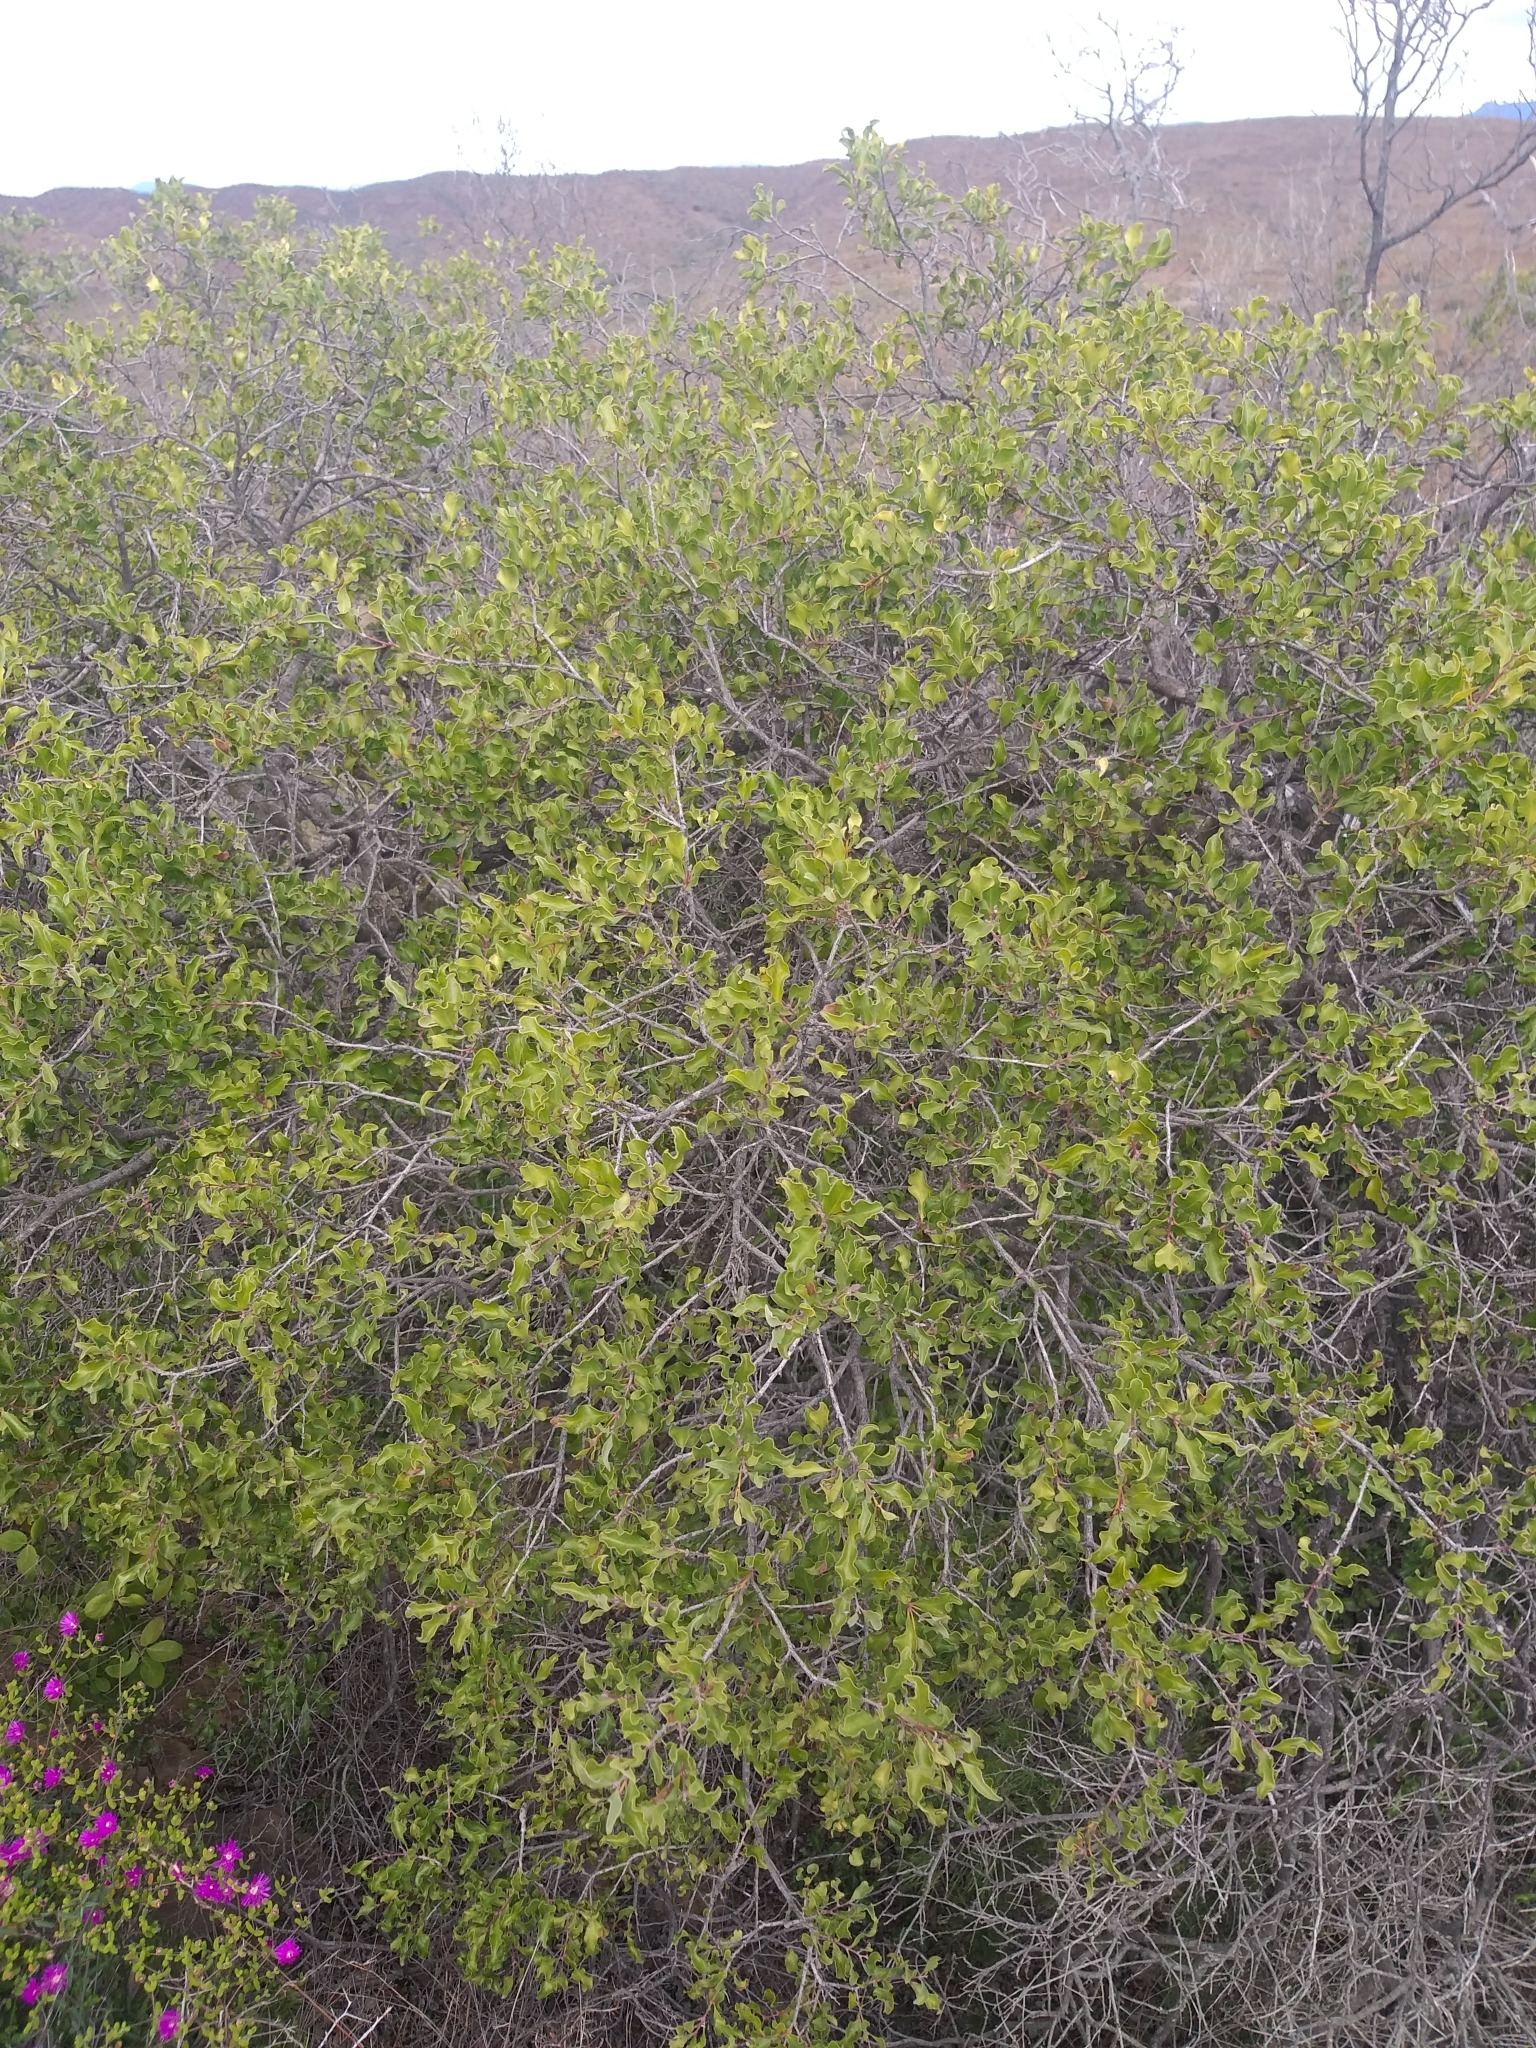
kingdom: Plantae
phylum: Tracheophyta
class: Magnoliopsida
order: Ericales
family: Ebenaceae
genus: Euclea
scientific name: Euclea undulata
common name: Small-leaved guarri
